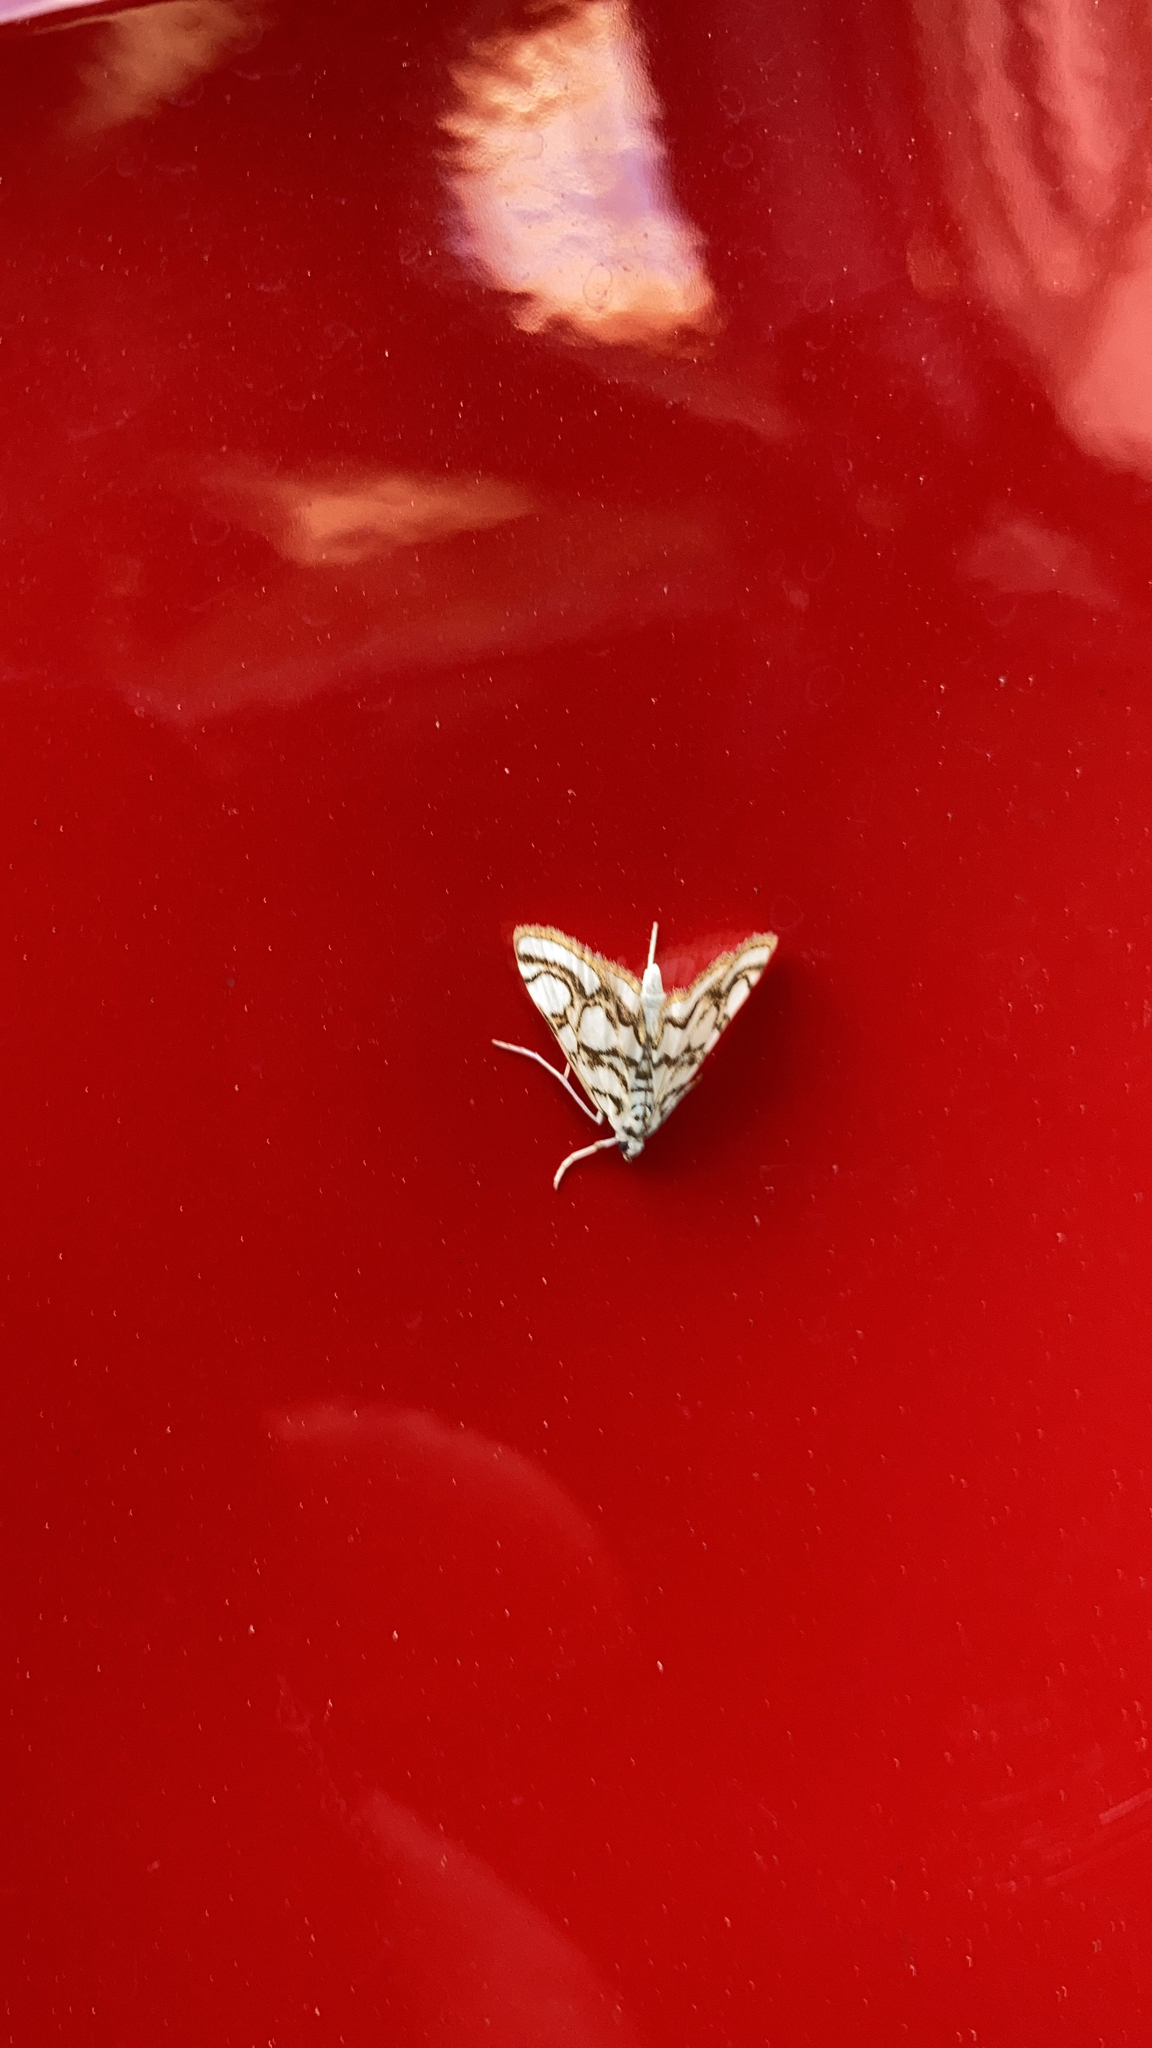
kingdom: Animalia
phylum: Arthropoda
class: Insecta
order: Lepidoptera
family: Crambidae
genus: Nymphula
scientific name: Nymphula nitidulata
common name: Beautiful china mark
